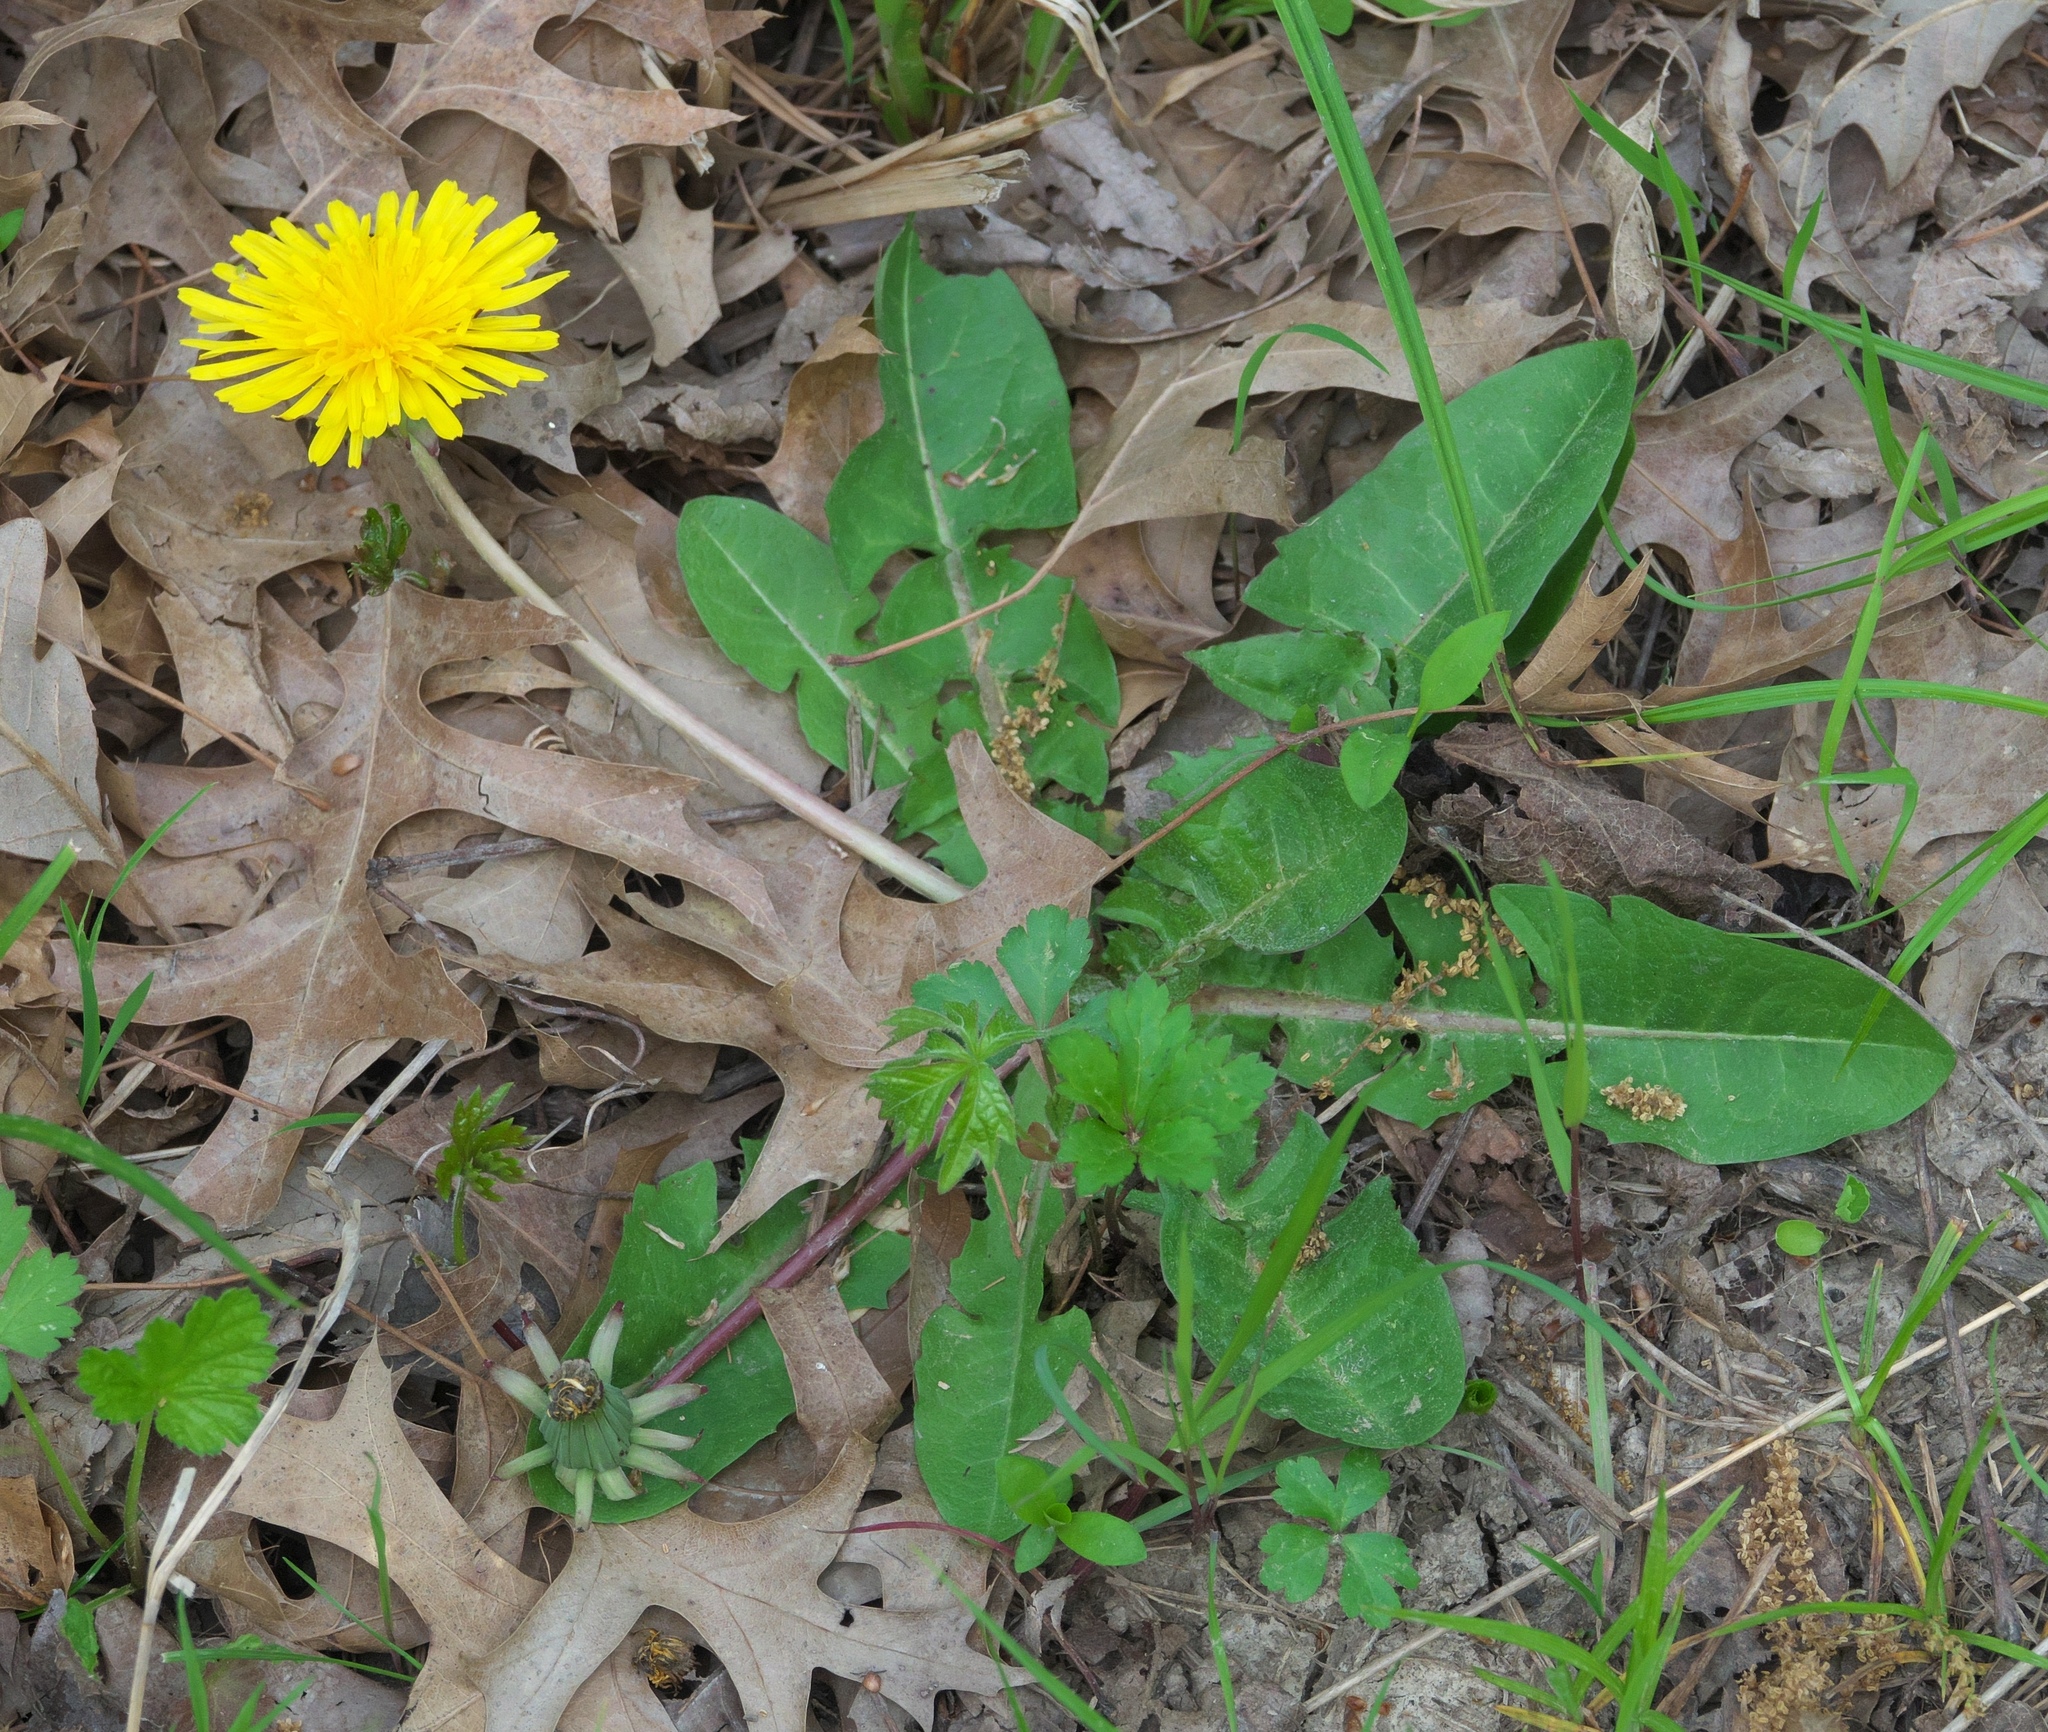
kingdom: Plantae
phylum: Tracheophyta
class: Magnoliopsida
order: Asterales
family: Asteraceae
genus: Taraxacum
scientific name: Taraxacum
